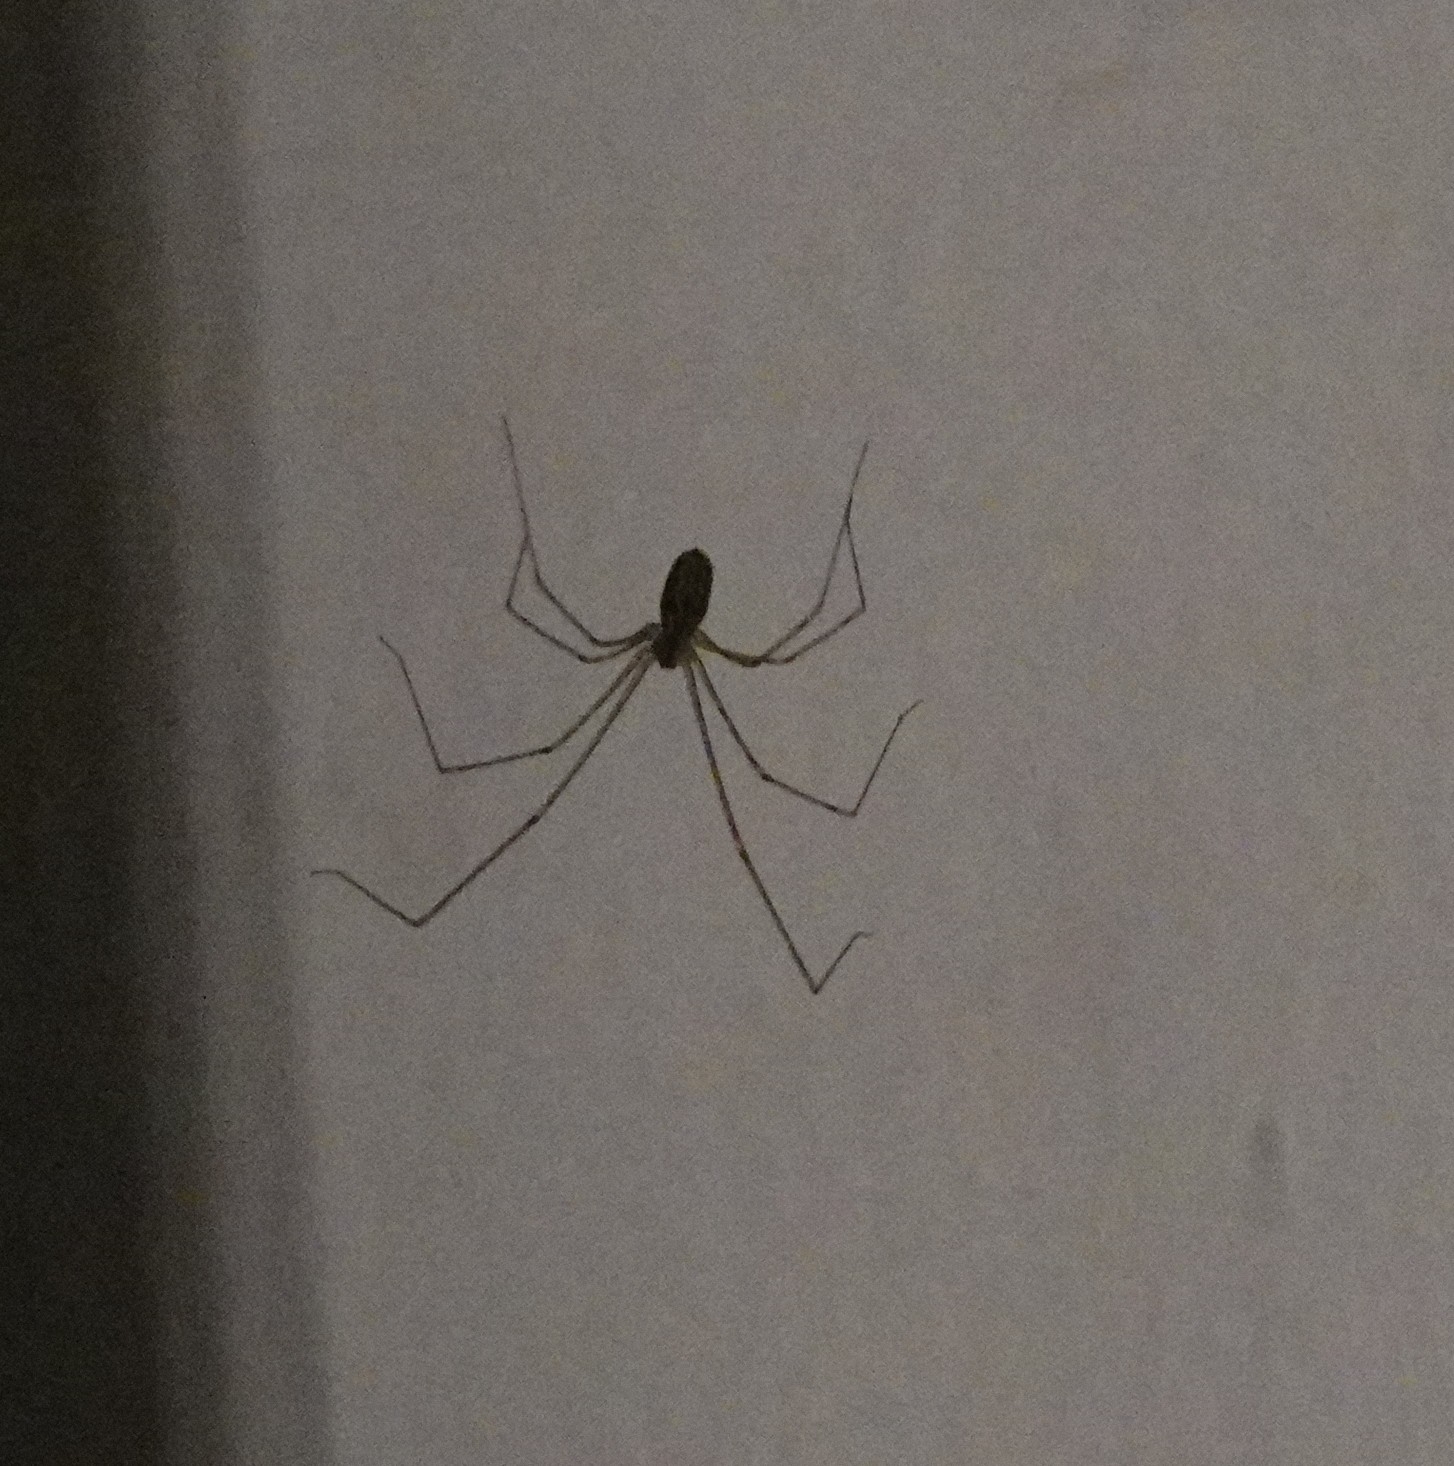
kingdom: Animalia
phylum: Arthropoda
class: Arachnida
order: Araneae
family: Pholcidae
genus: Holocnemus
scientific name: Holocnemus pluchei
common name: Marbled cellar spider
